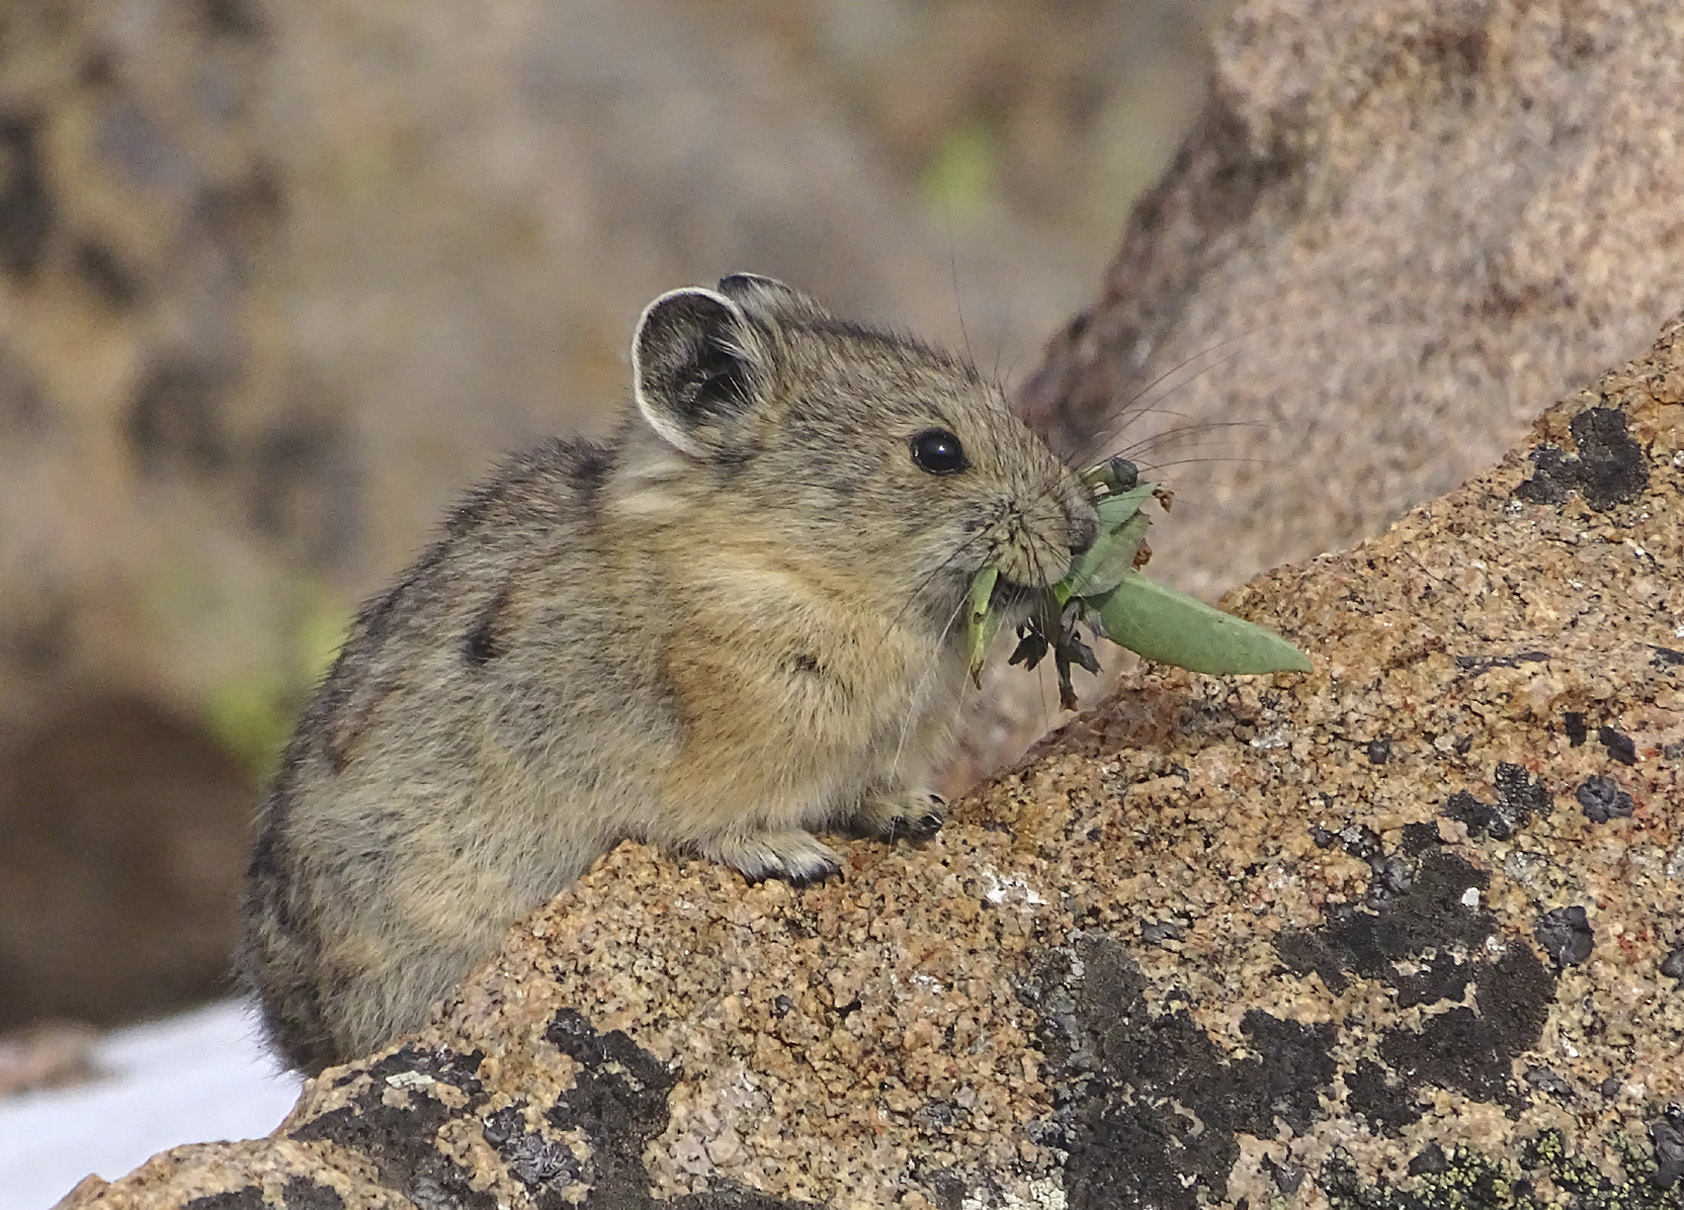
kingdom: Animalia
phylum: Chordata
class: Mammalia
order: Lagomorpha
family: Ochotonidae
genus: Ochotona
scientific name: Ochotona princeps
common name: American pika
